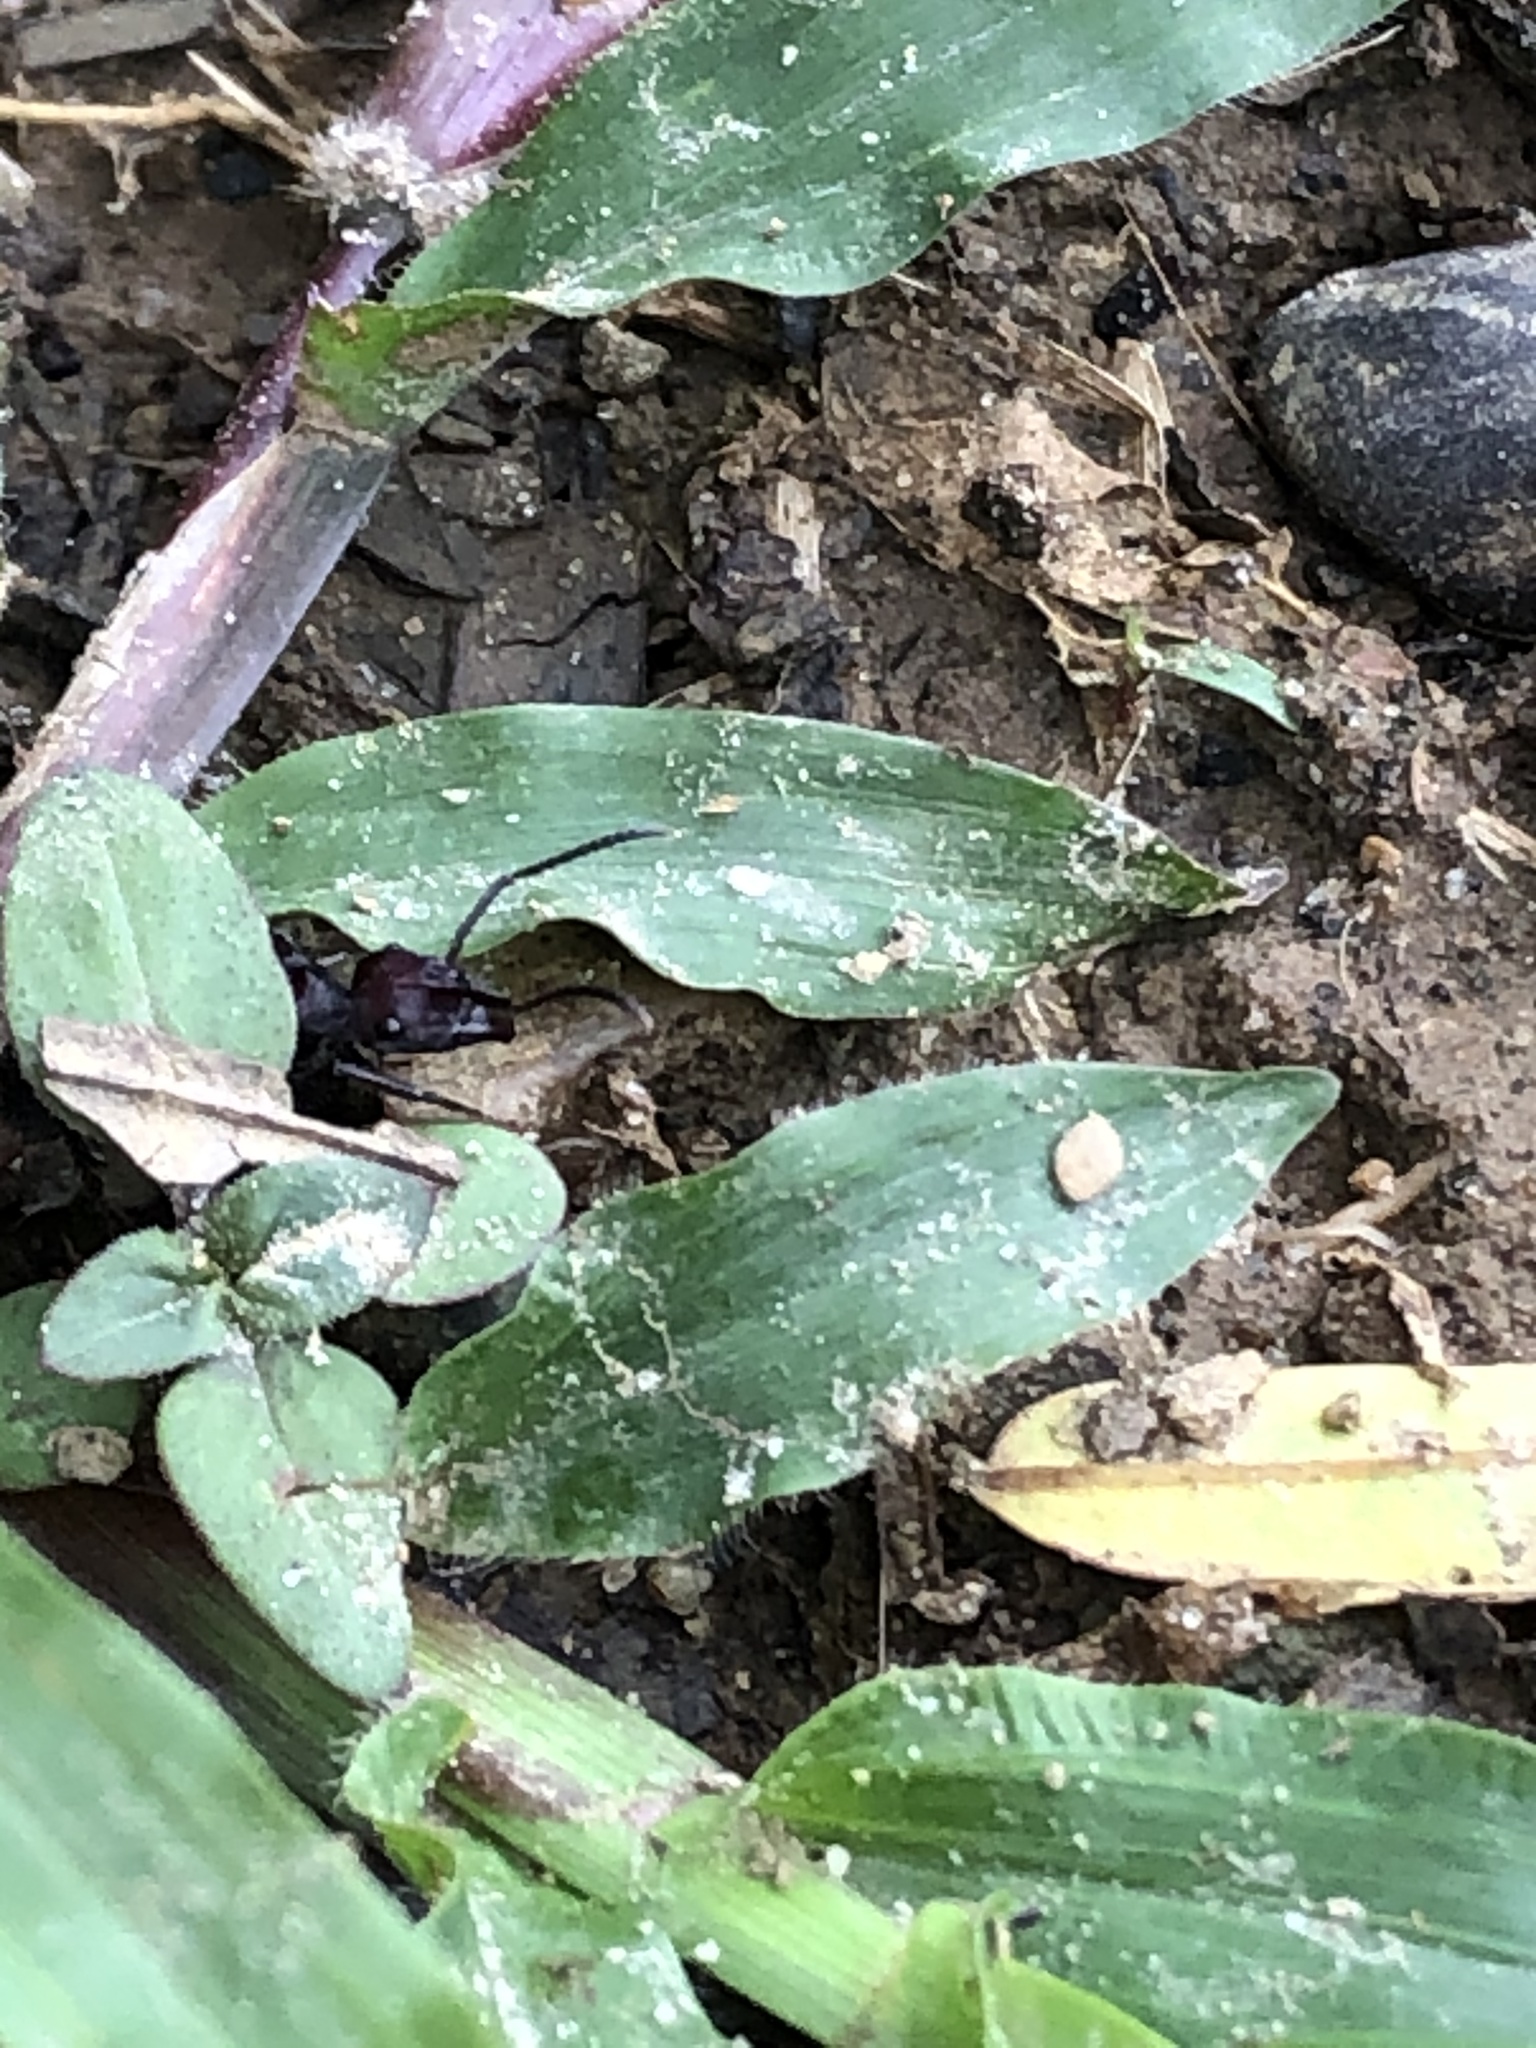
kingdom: Animalia
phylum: Arthropoda
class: Insecta
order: Hymenoptera
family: Formicidae
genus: Ectatomma
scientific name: Ectatomma brunneum
